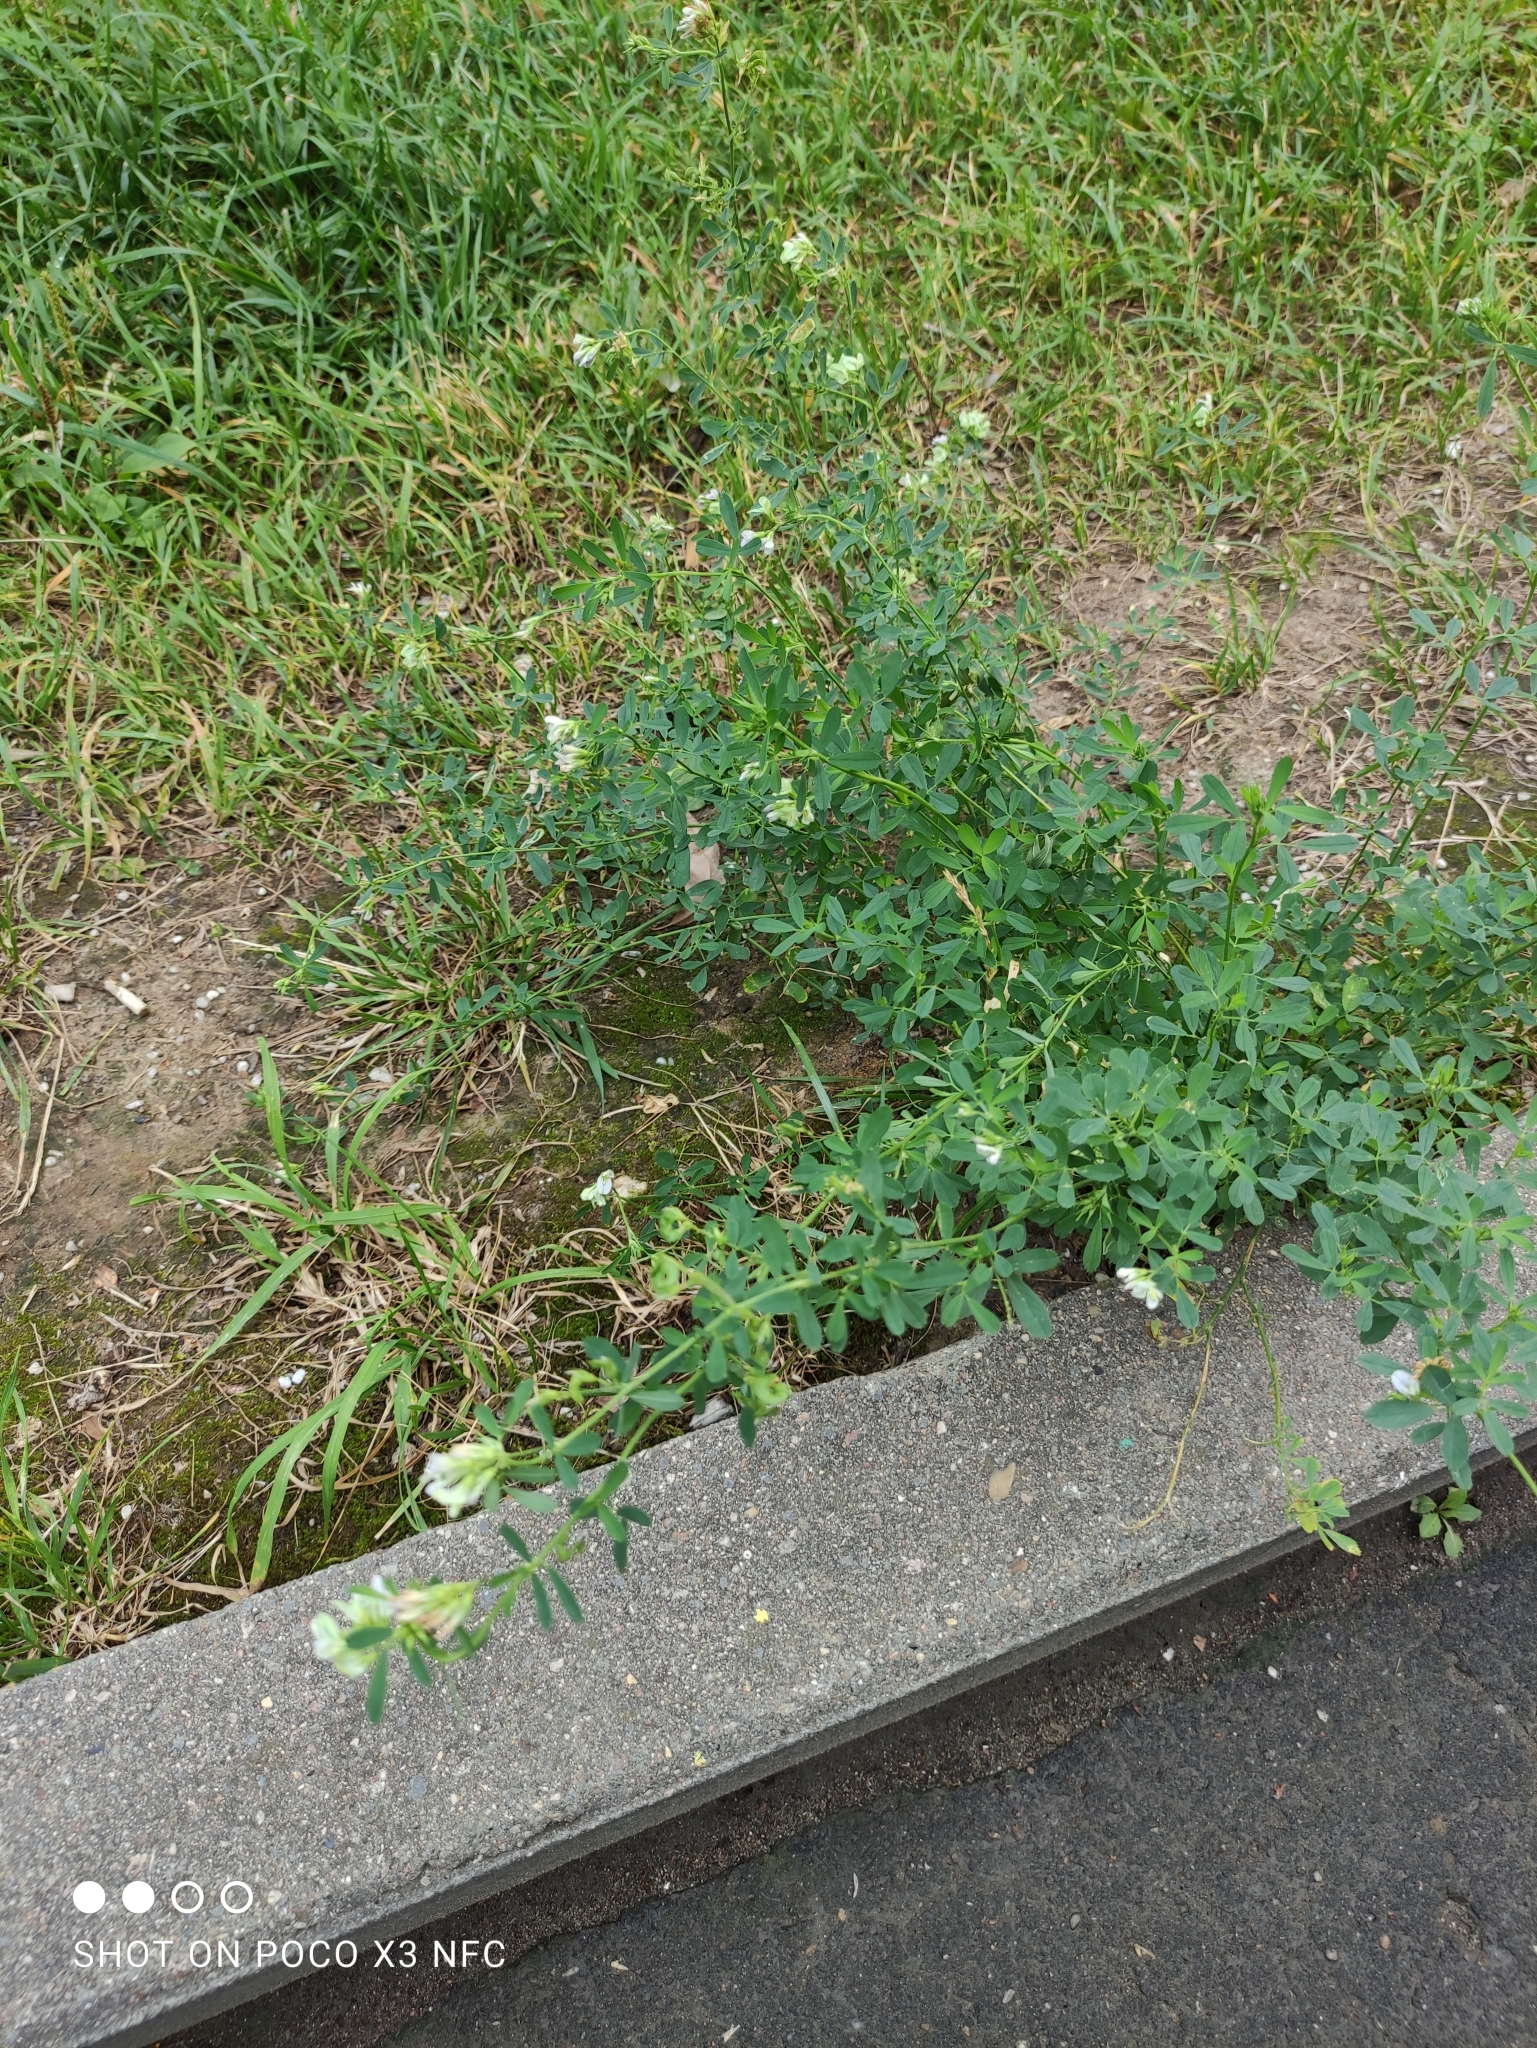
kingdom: Plantae
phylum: Tracheophyta
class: Magnoliopsida
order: Fabales
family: Fabaceae
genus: Medicago
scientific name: Medicago varia
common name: Sand lucerne
